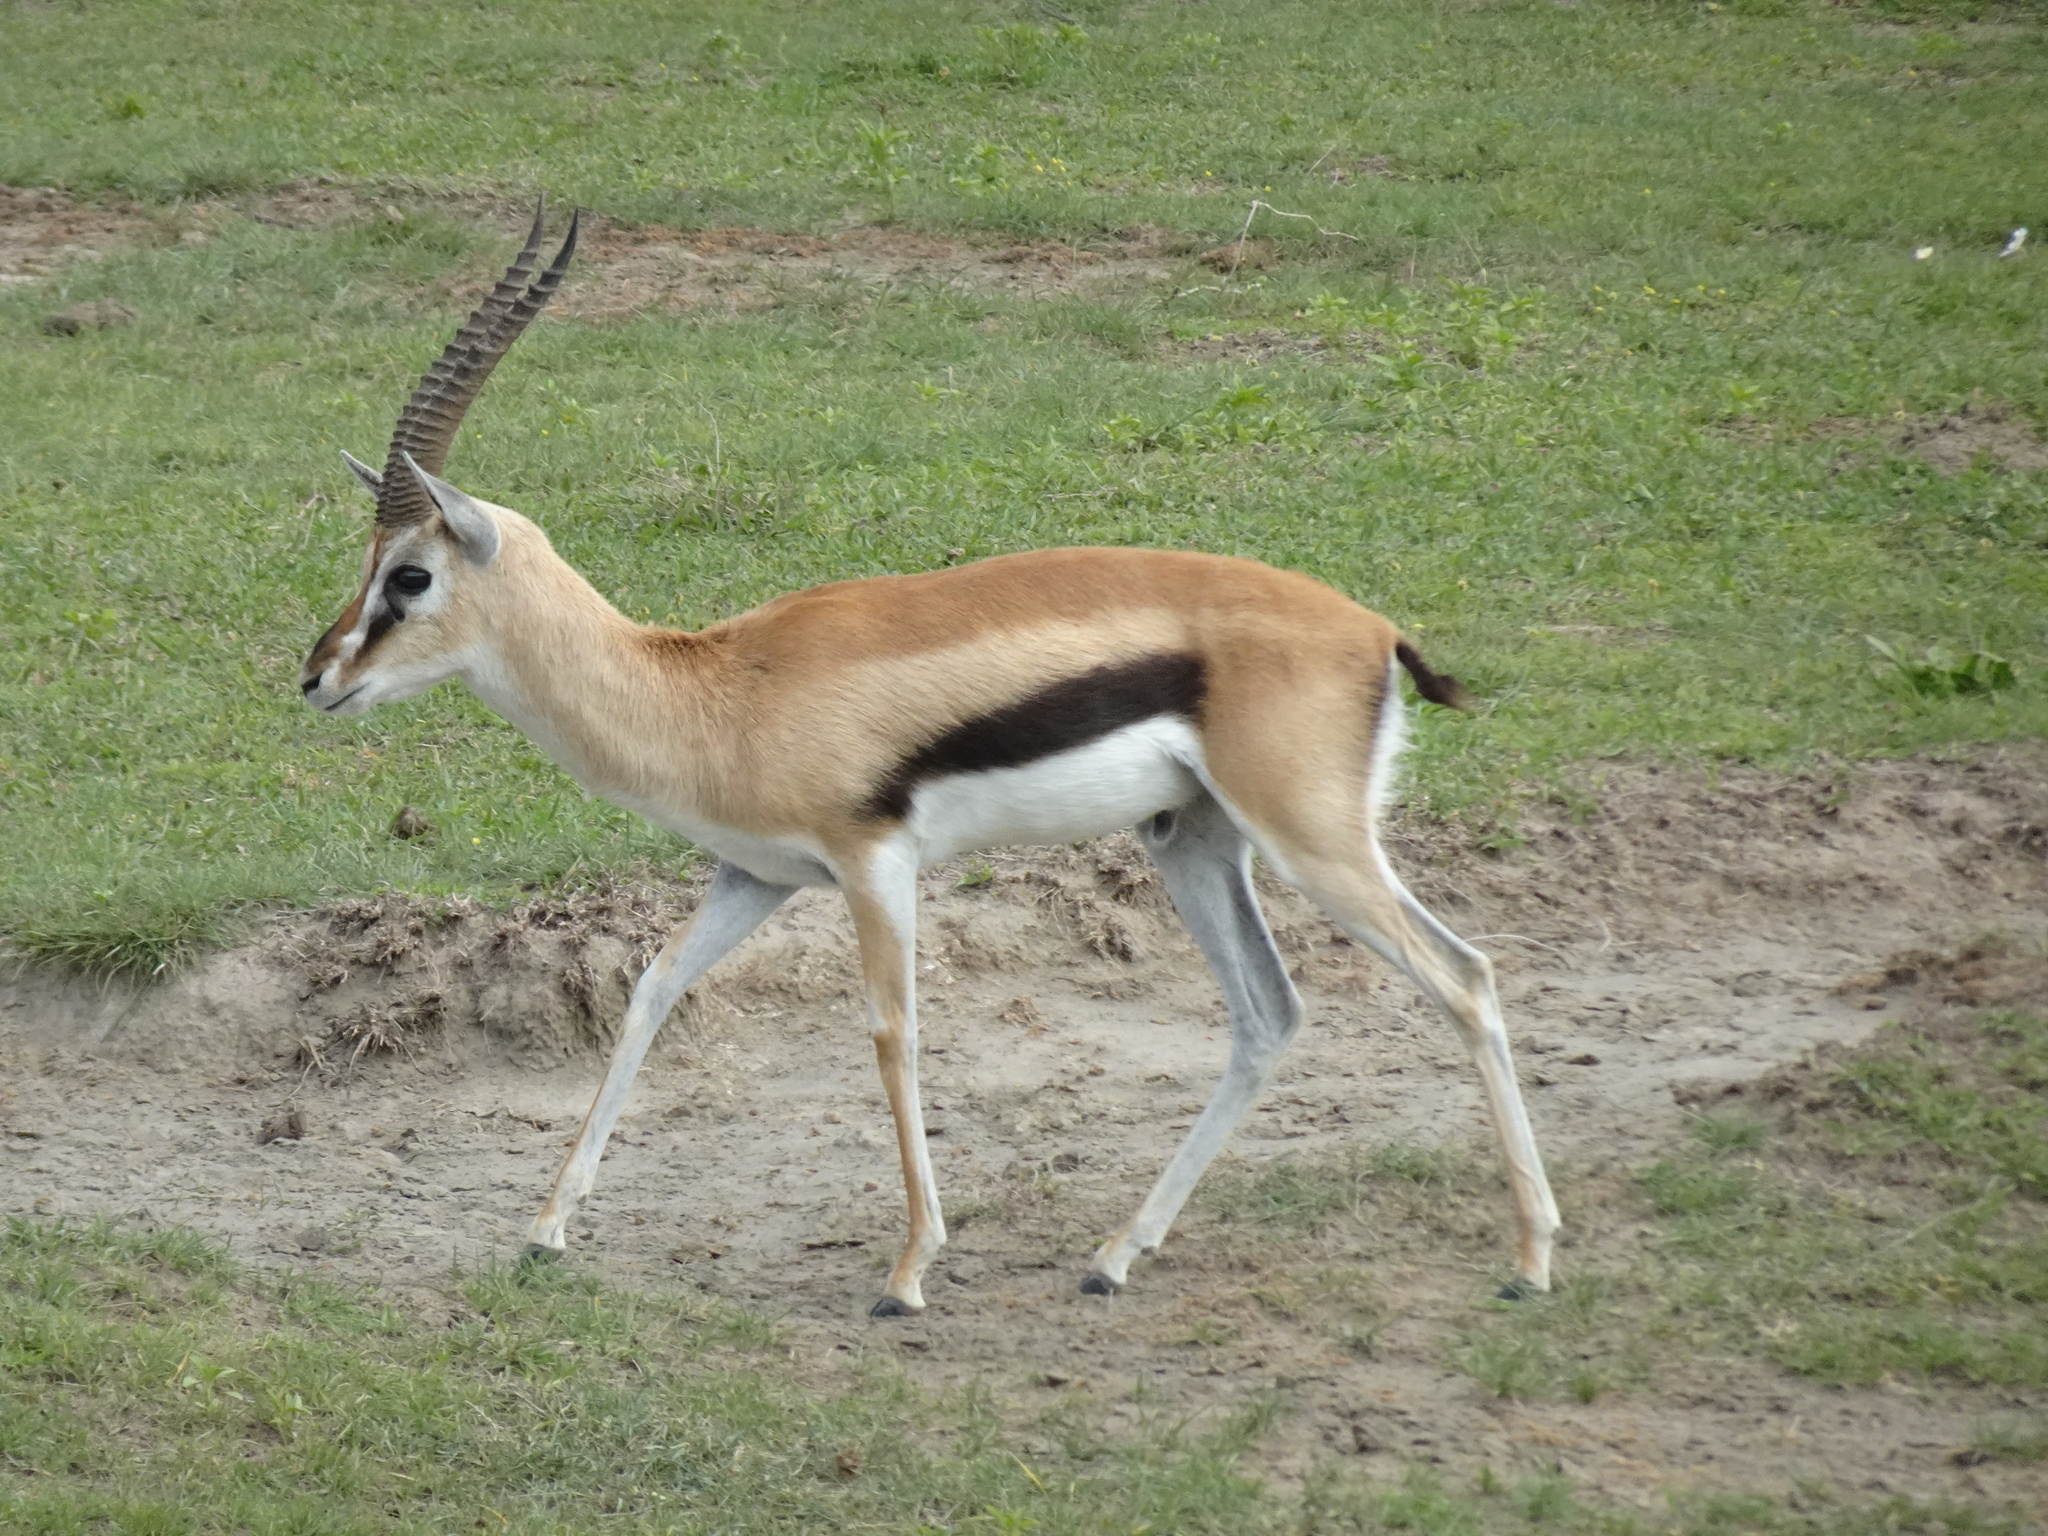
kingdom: Animalia
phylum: Chordata
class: Mammalia
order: Artiodactyla
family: Bovidae
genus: Eudorcas
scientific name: Eudorcas thomsonii
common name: Thomson's gazelle
